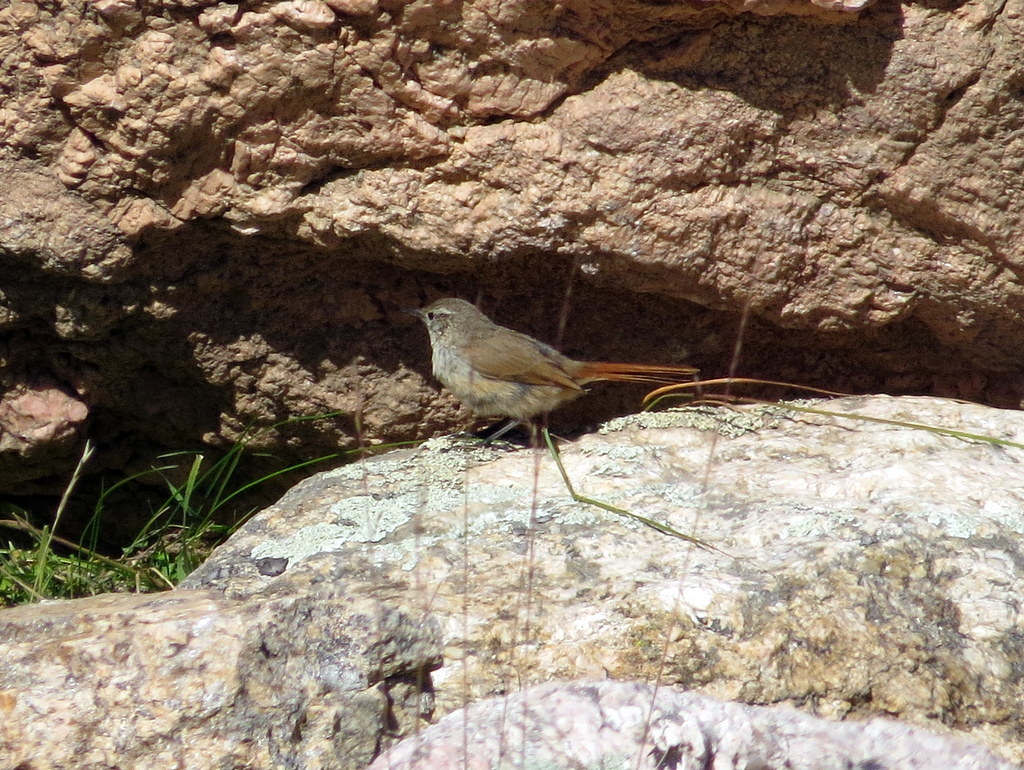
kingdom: Animalia
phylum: Chordata
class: Aves
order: Passeriformes
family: Furnariidae
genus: Asthenes
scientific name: Asthenes modesta
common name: Cordilleran canastero
